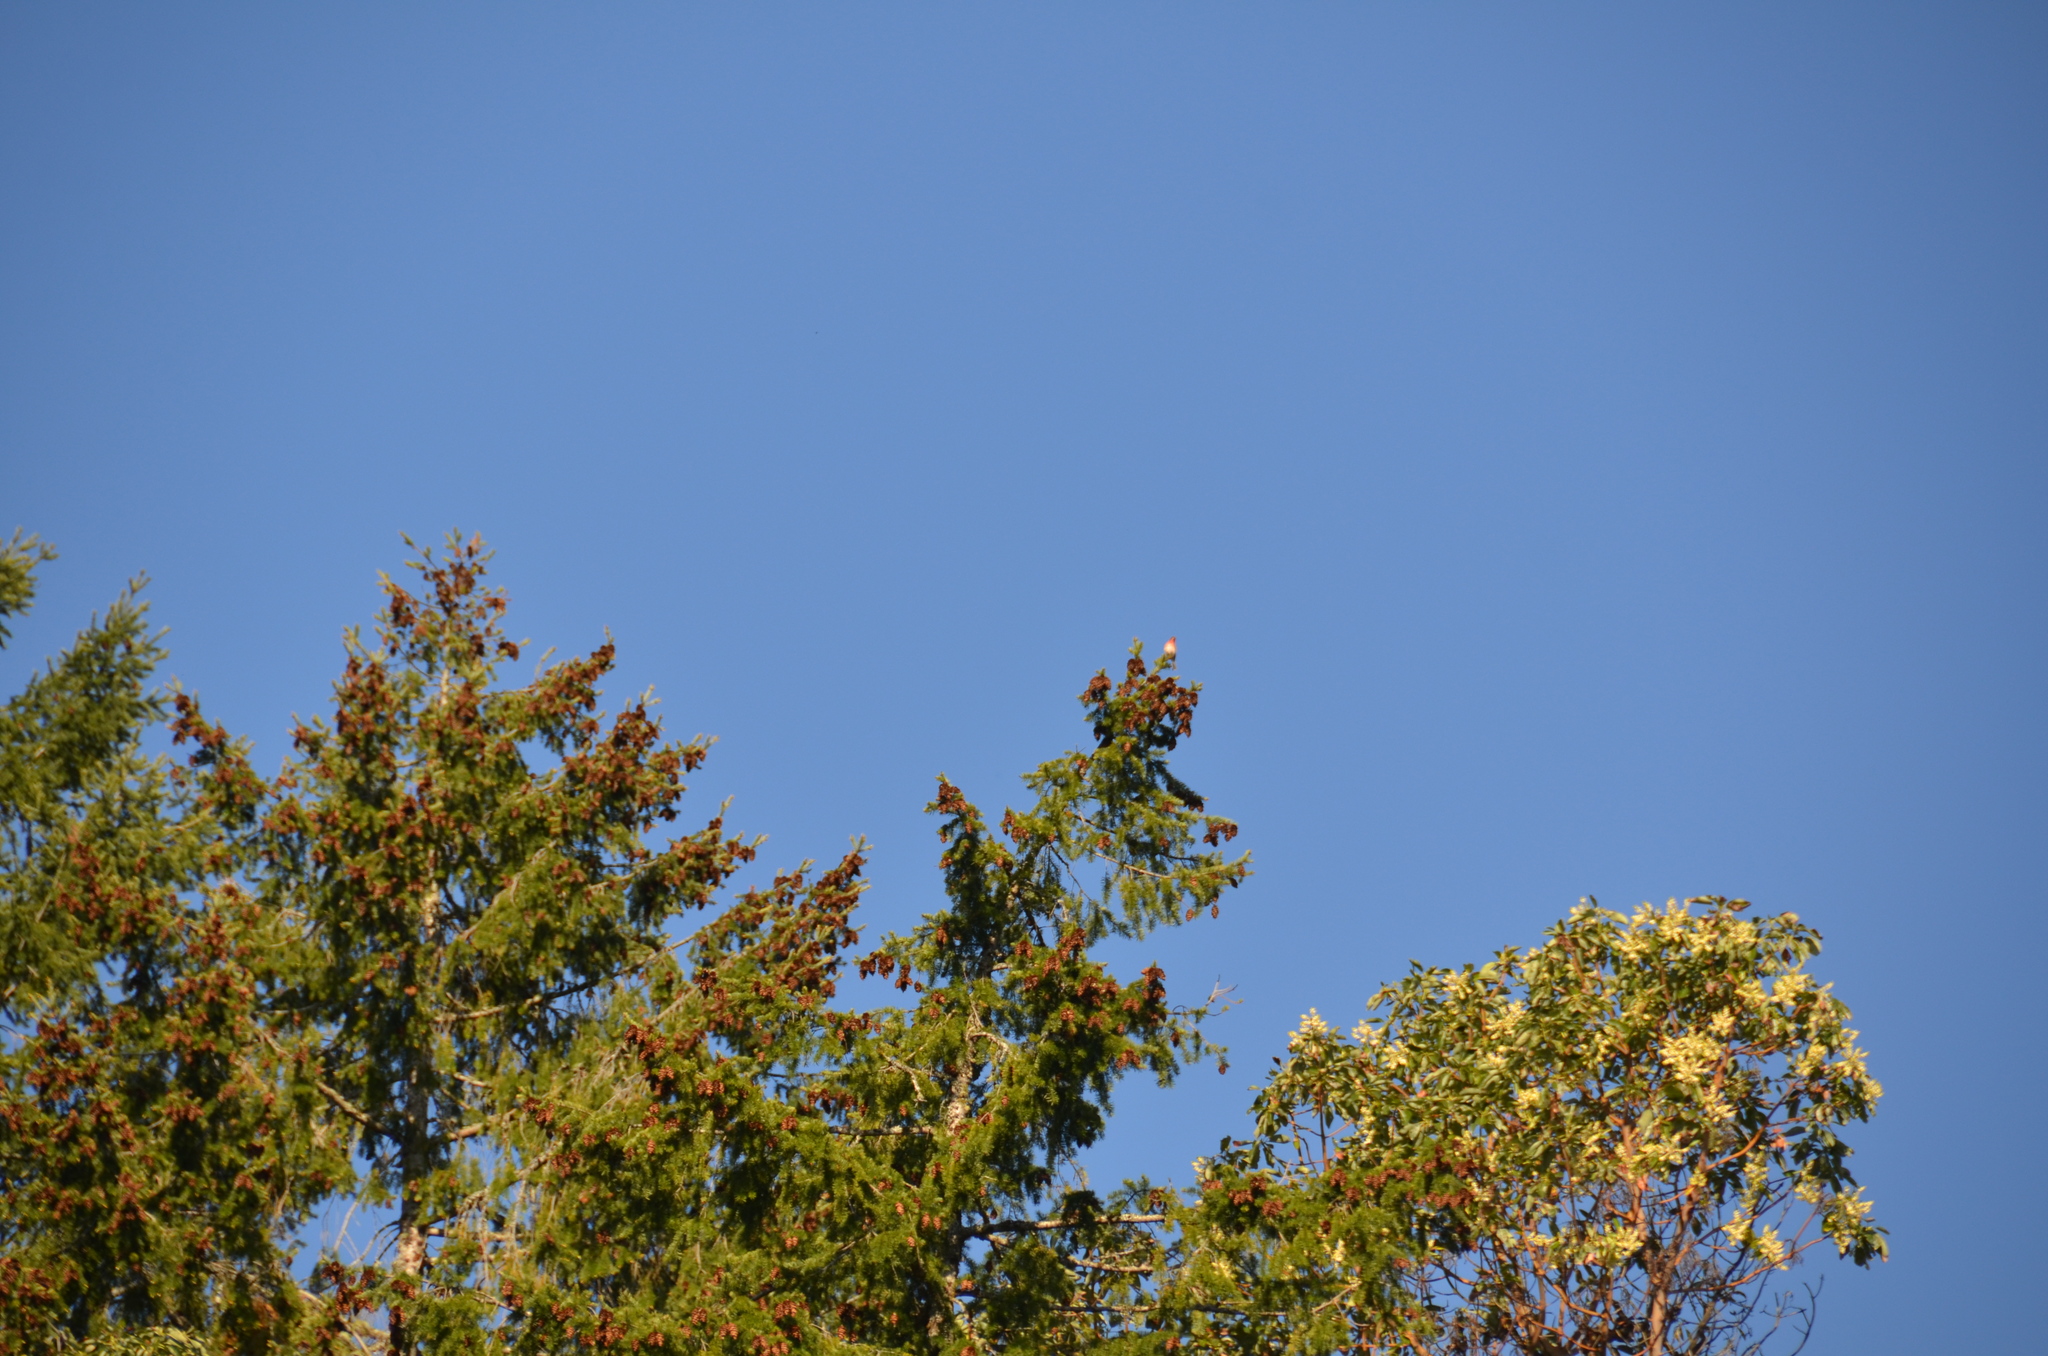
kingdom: Animalia
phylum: Chordata
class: Aves
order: Passeriformes
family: Fringillidae
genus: Haemorhous
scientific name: Haemorhous mexicanus
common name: House finch
